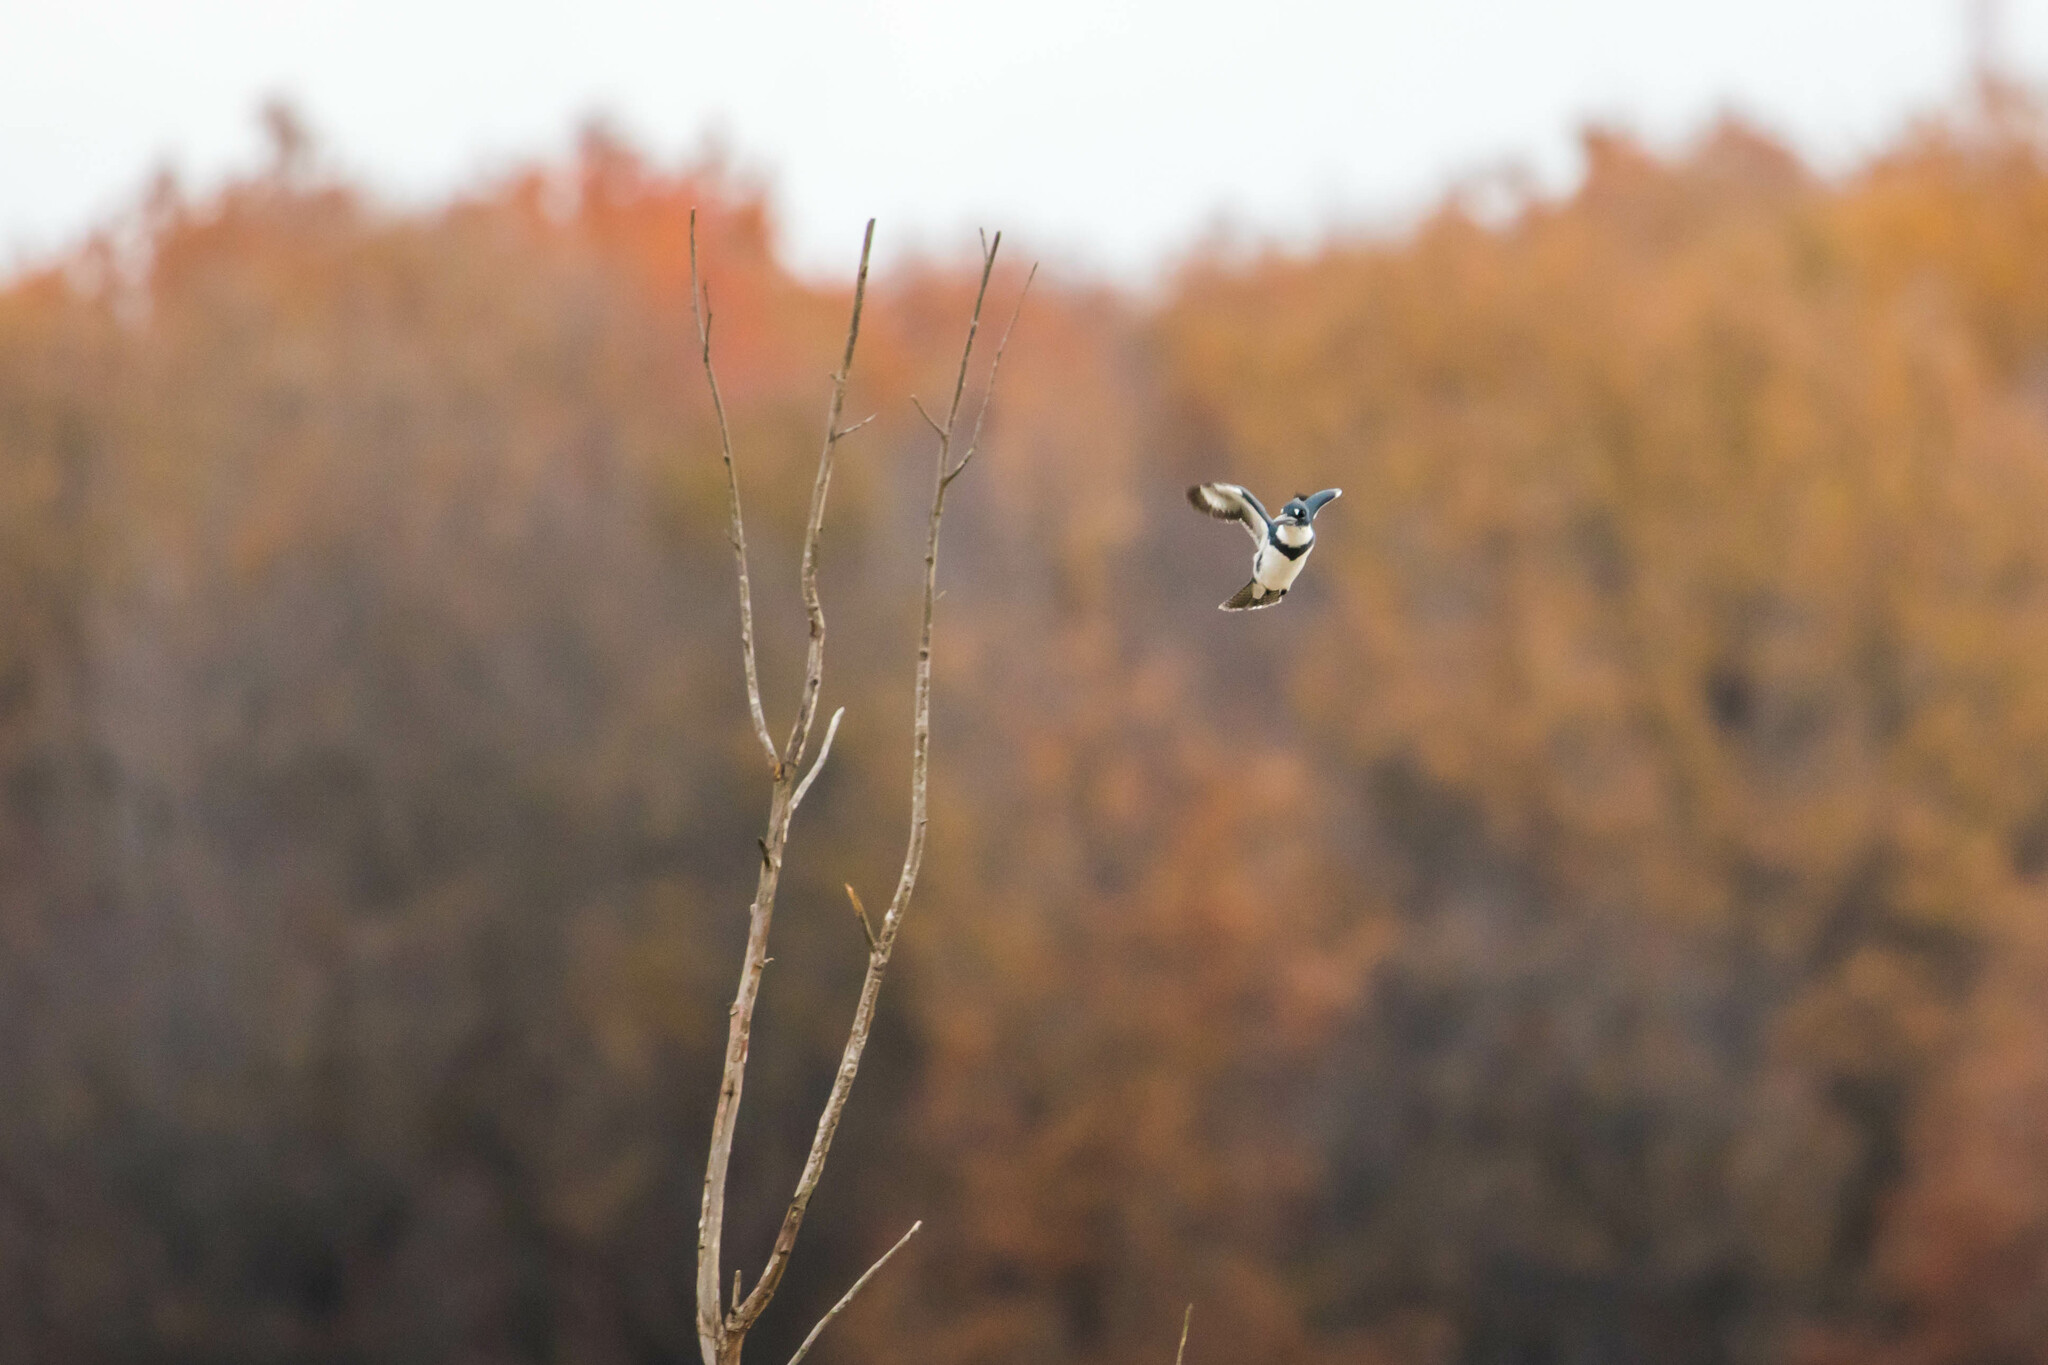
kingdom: Animalia
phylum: Chordata
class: Aves
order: Coraciiformes
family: Alcedinidae
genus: Megaceryle
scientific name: Megaceryle alcyon
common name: Belted kingfisher
